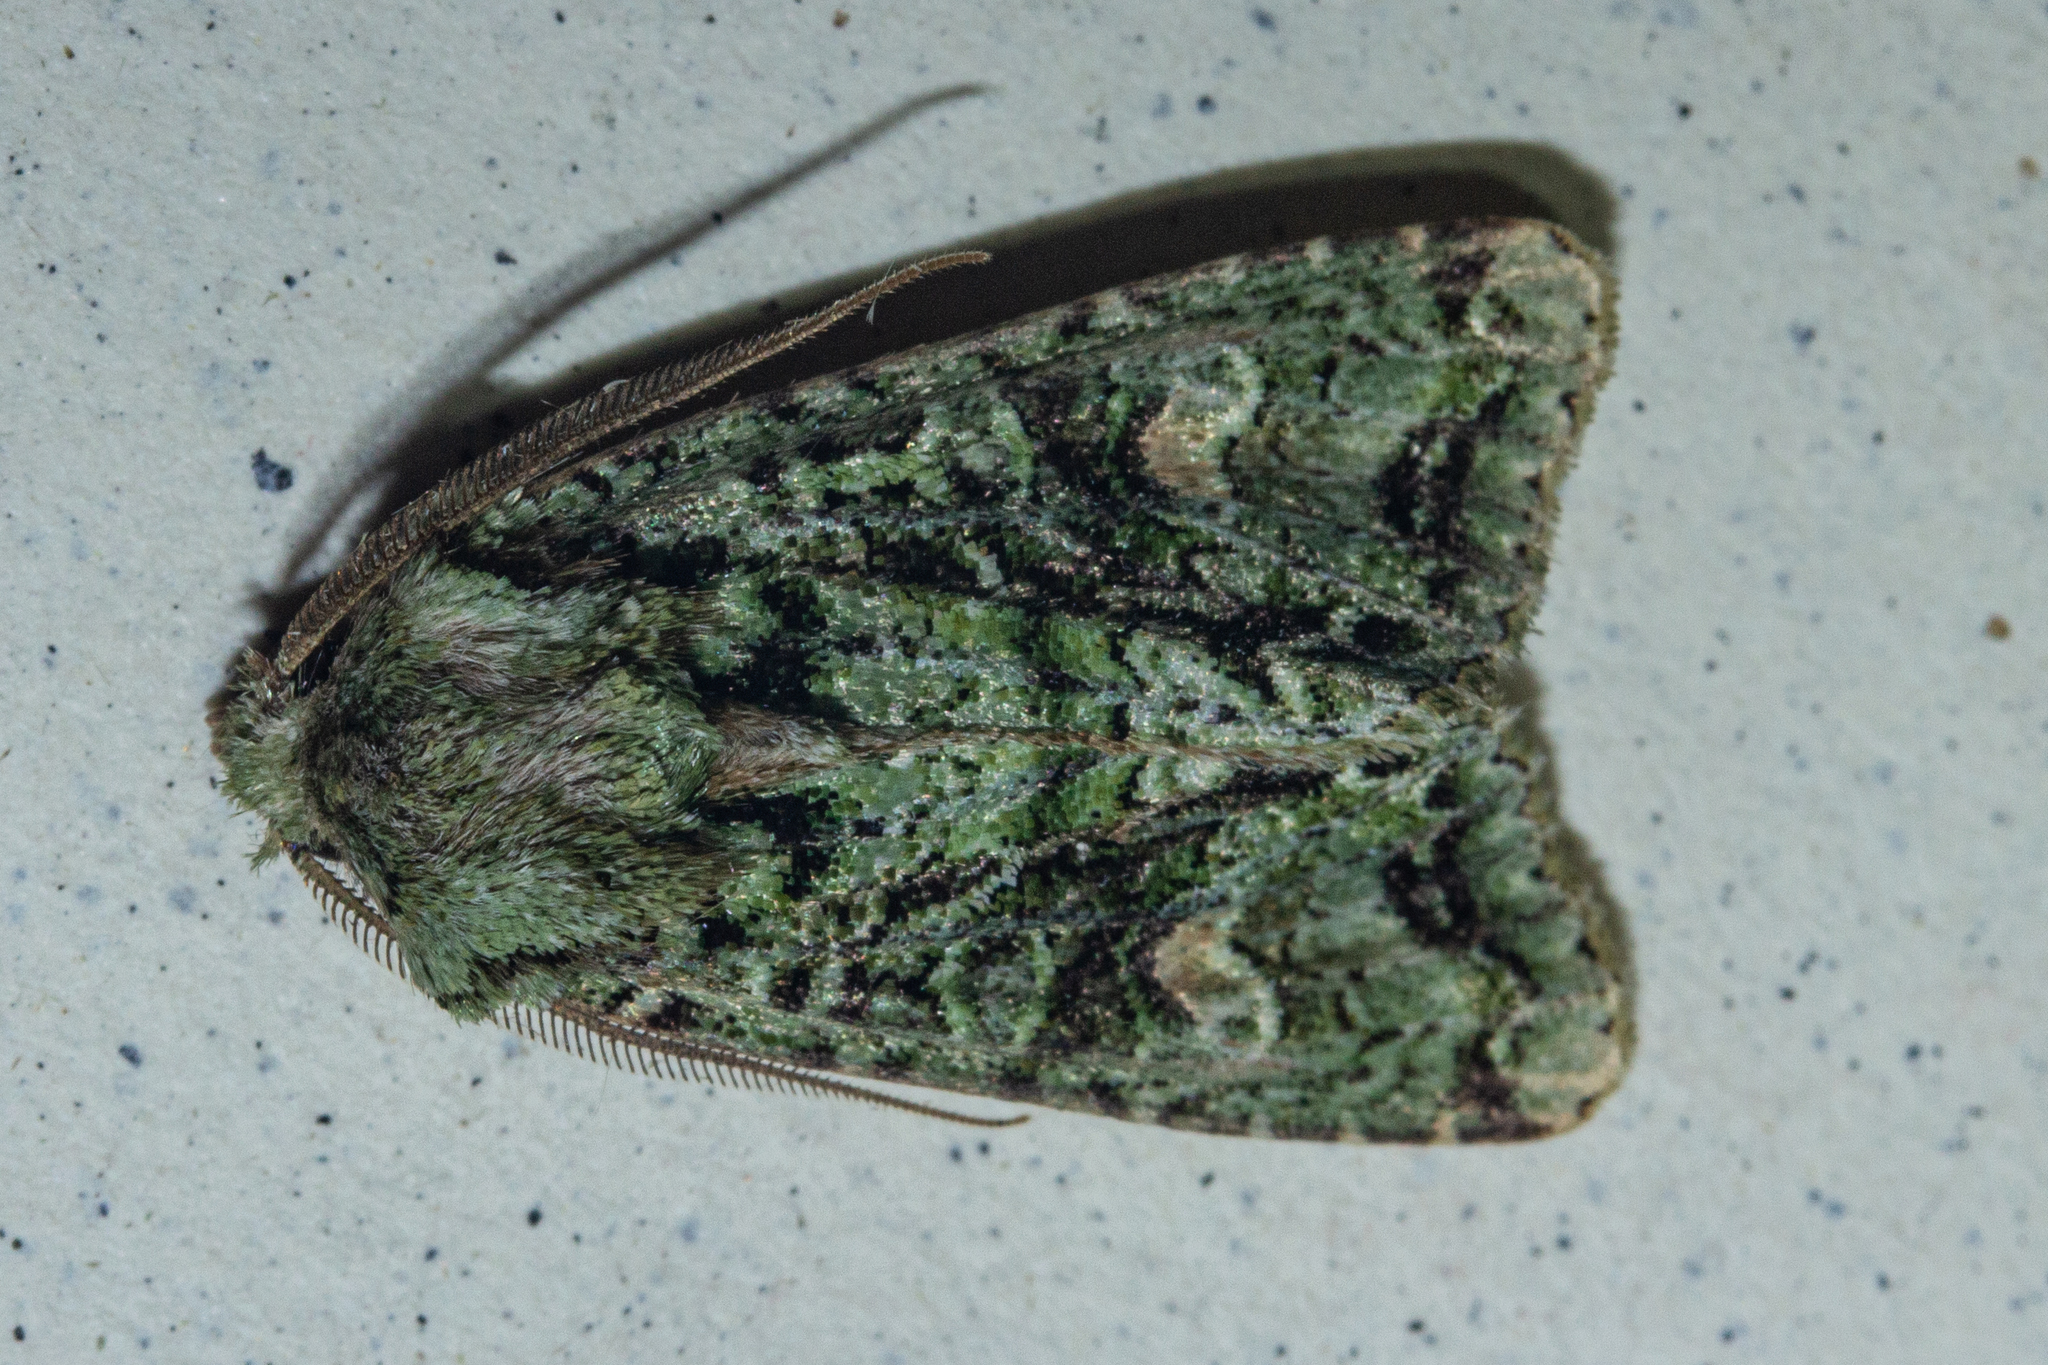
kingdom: Animalia
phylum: Arthropoda
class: Insecta
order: Lepidoptera
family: Noctuidae
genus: Ichneutica
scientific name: Ichneutica
